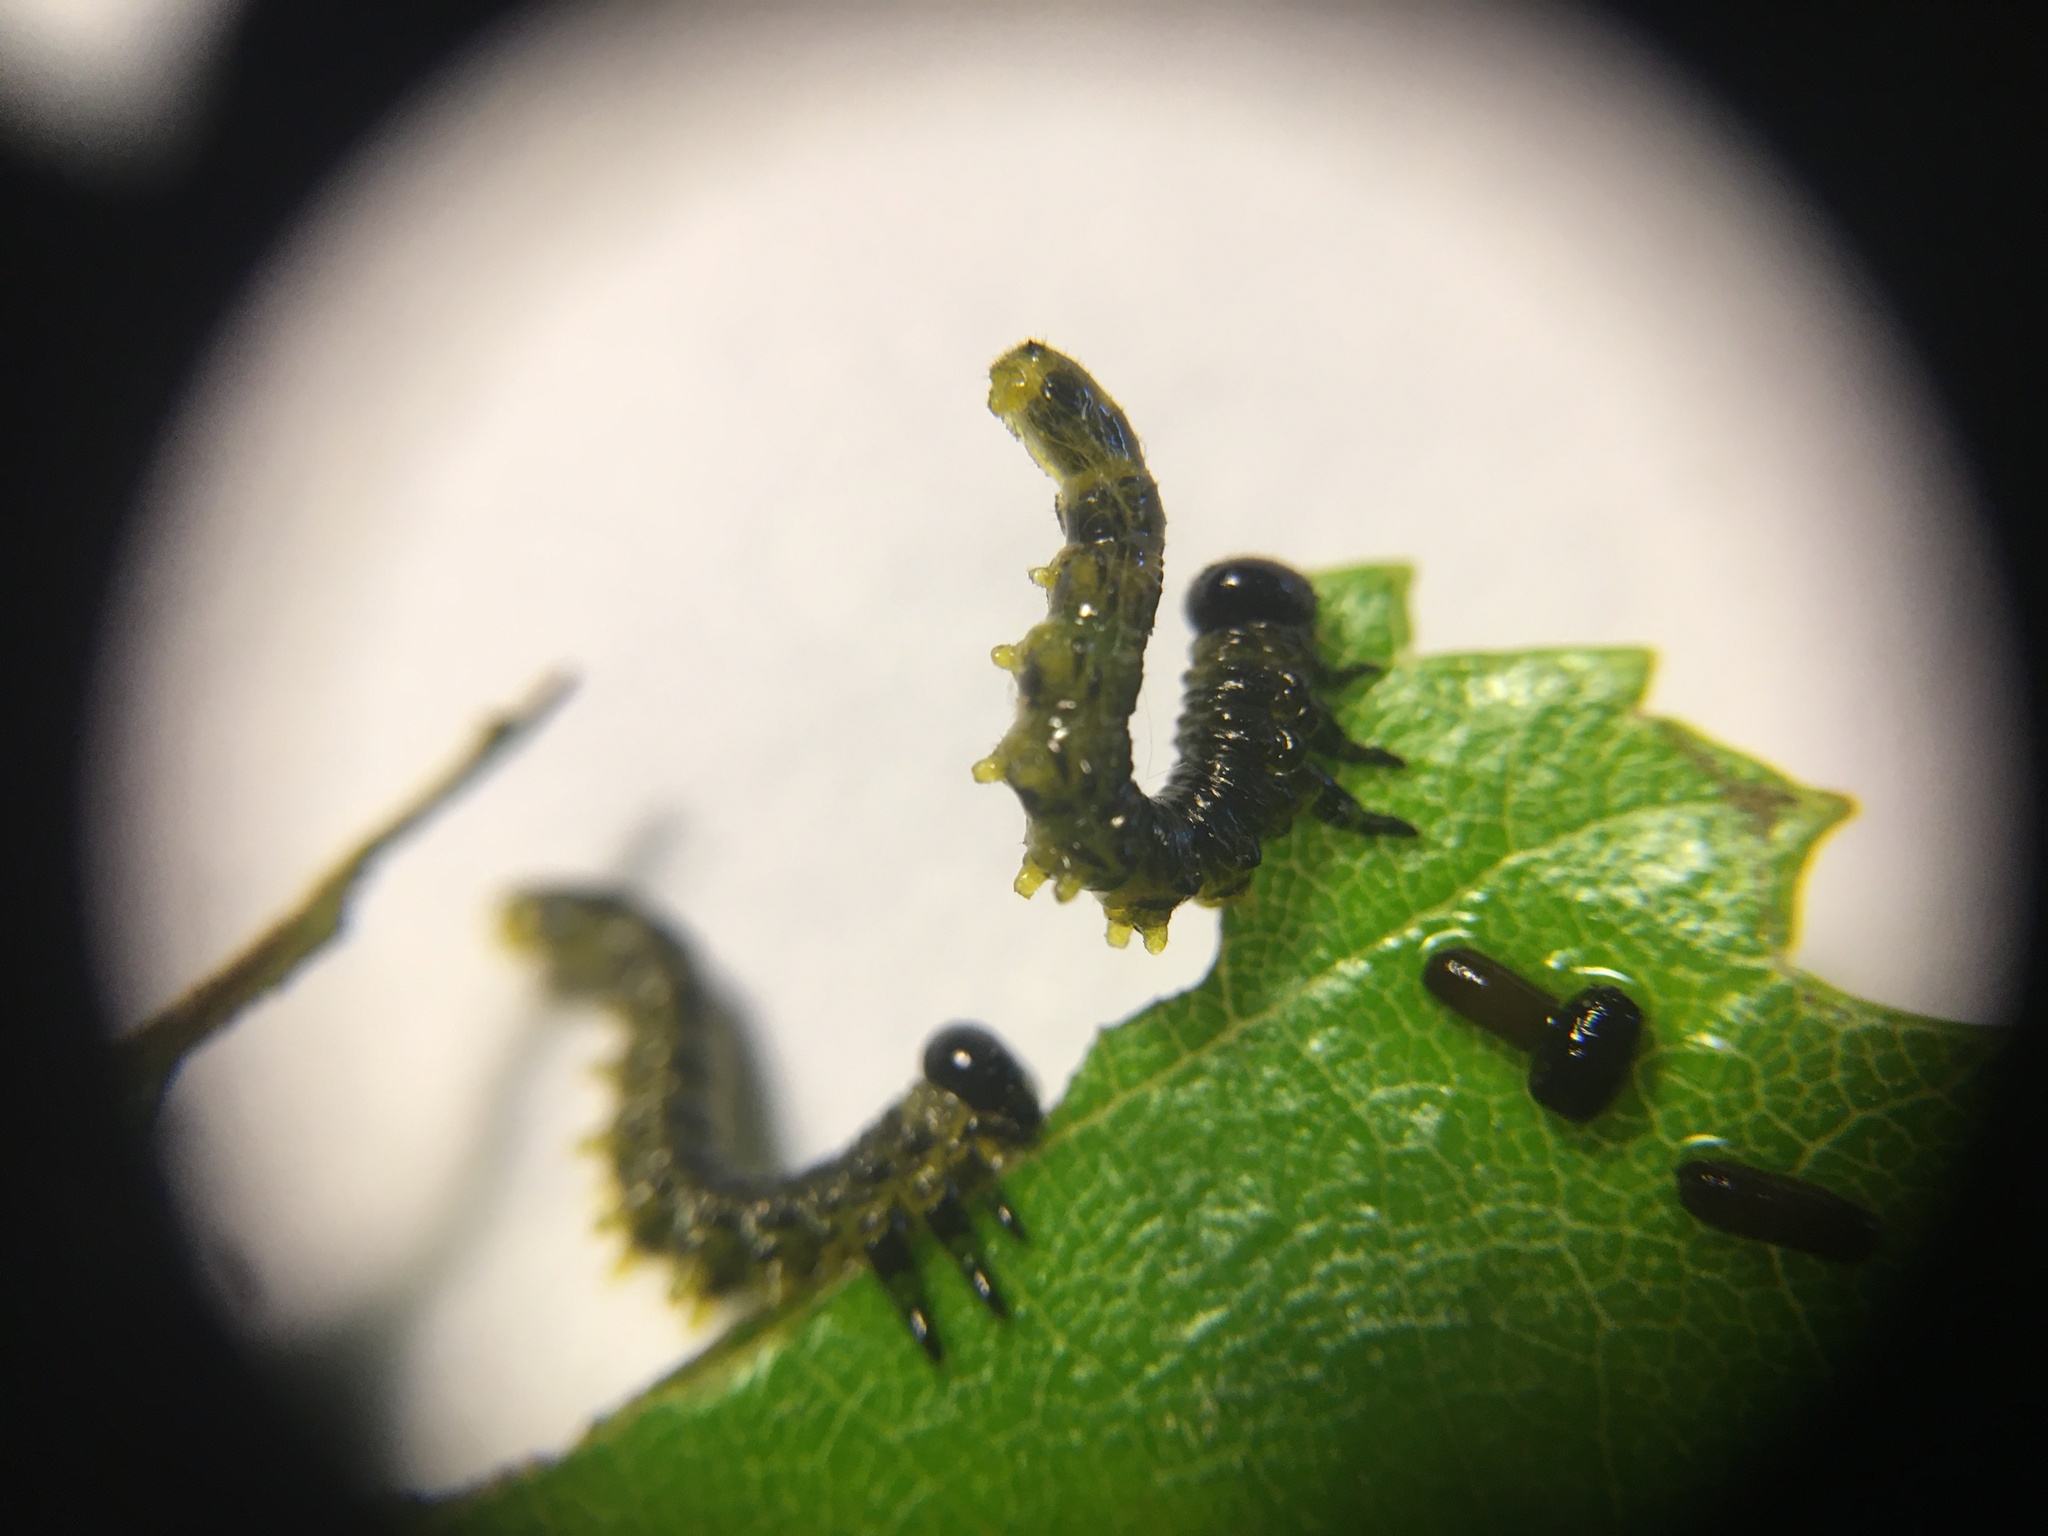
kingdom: Animalia
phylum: Arthropoda
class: Insecta
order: Hymenoptera
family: Tenthredinidae
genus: Nematus
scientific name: Nematus
